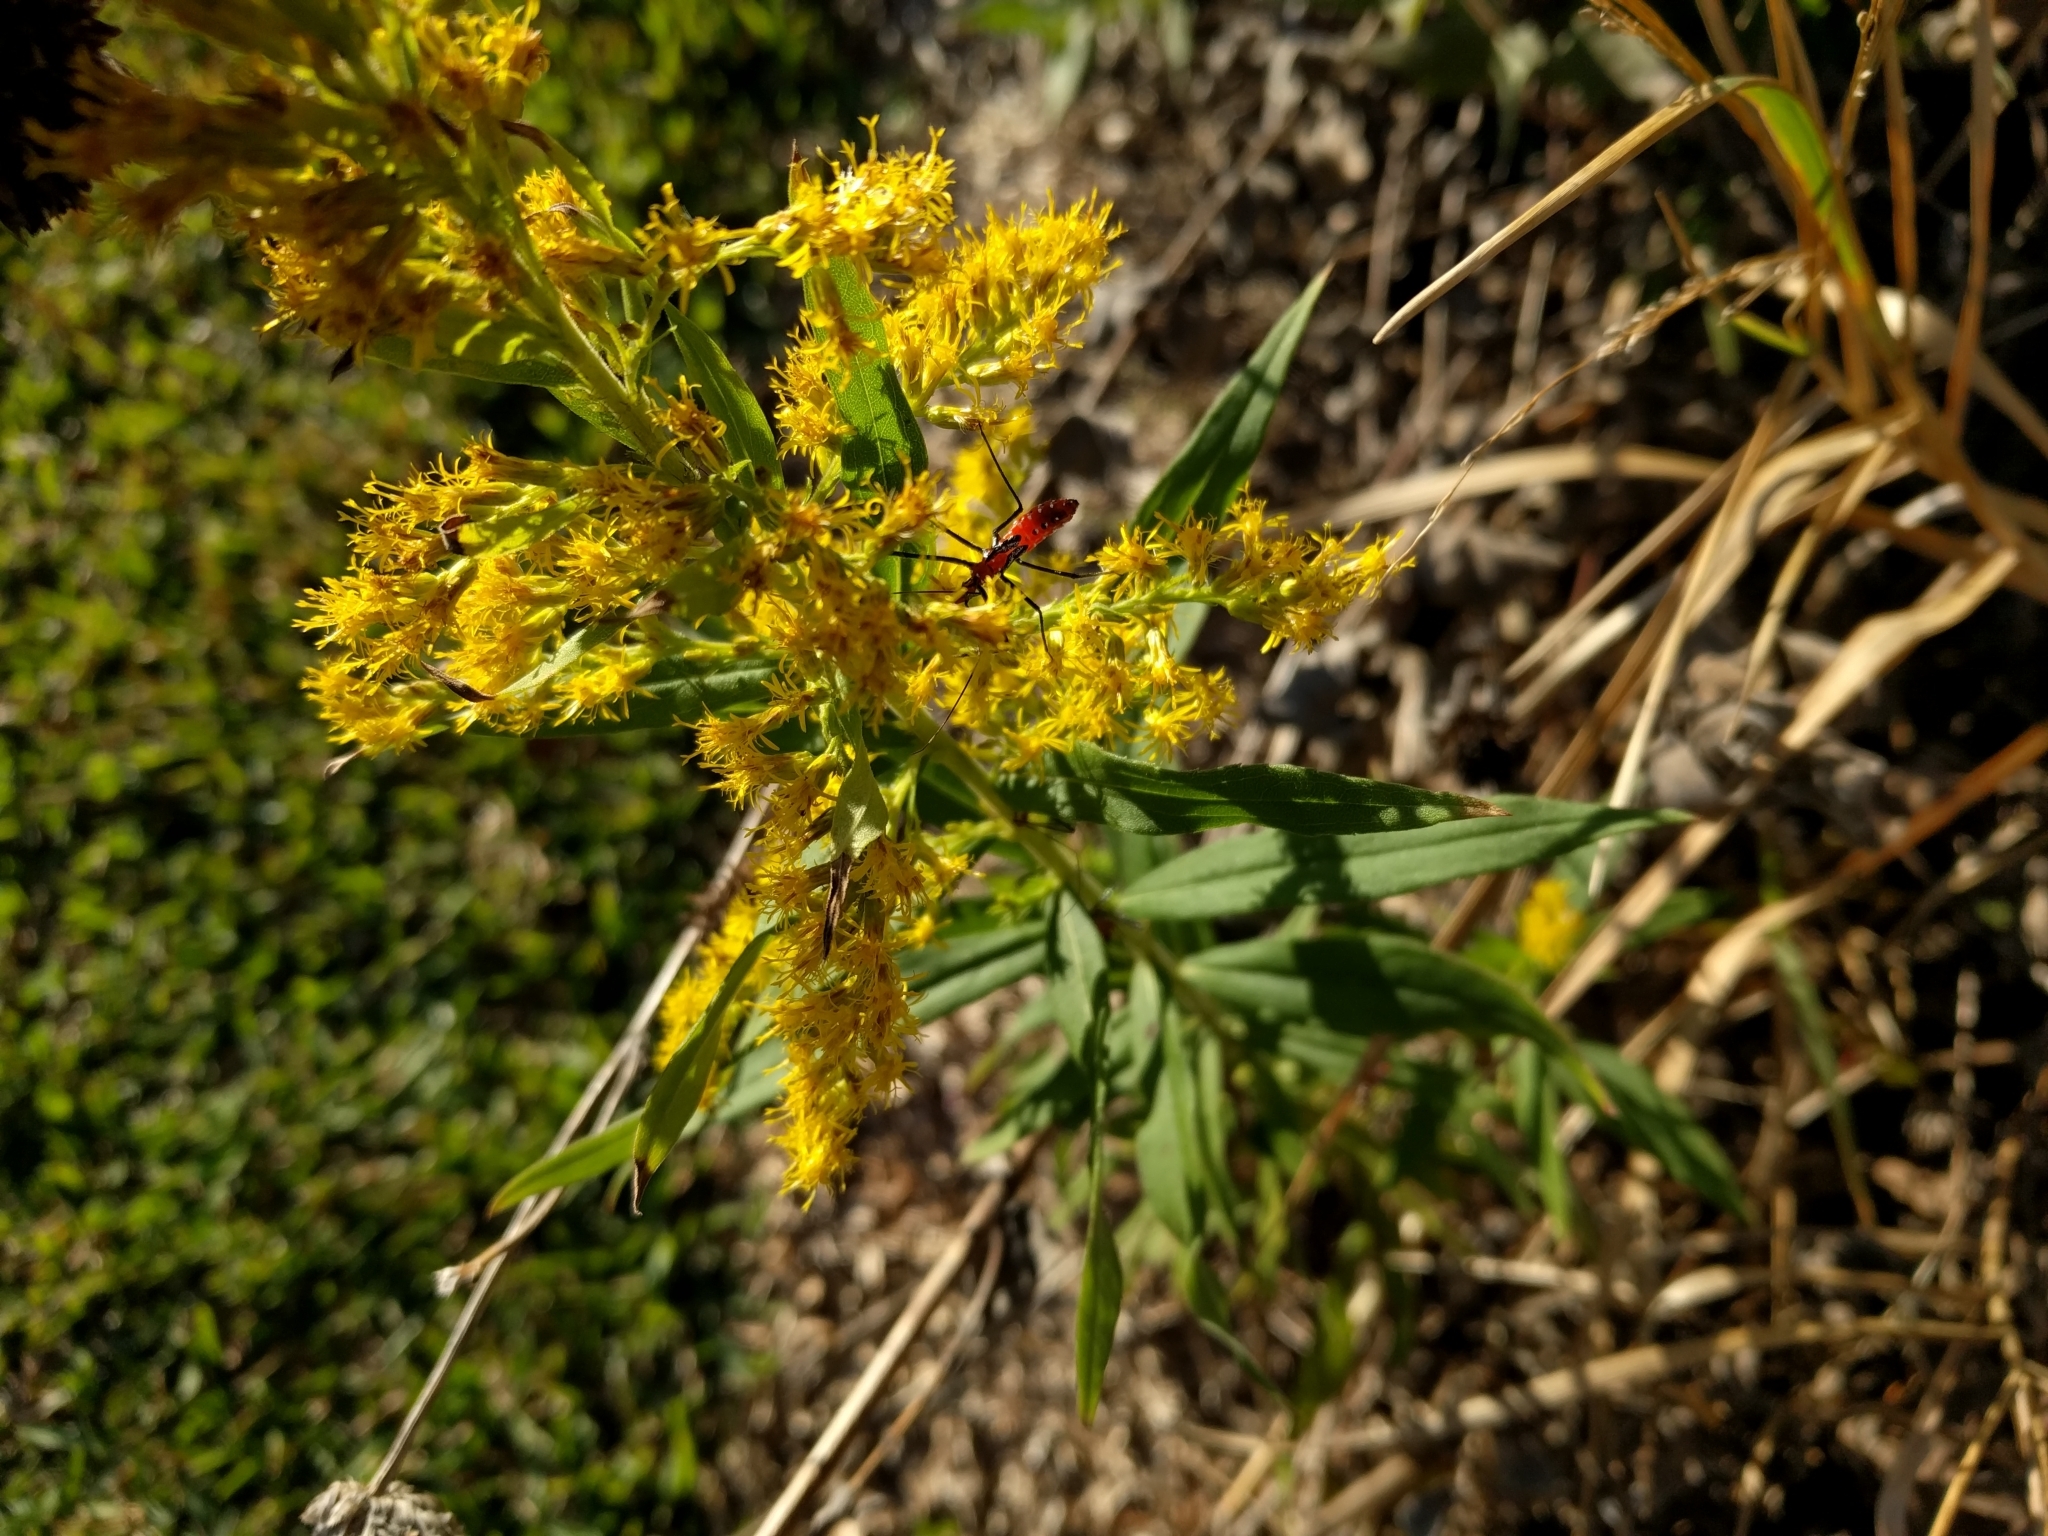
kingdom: Animalia
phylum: Arthropoda
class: Insecta
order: Hemiptera
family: Reduviidae
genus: Zelus
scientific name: Zelus longipes
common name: Milkweed assassin bug
